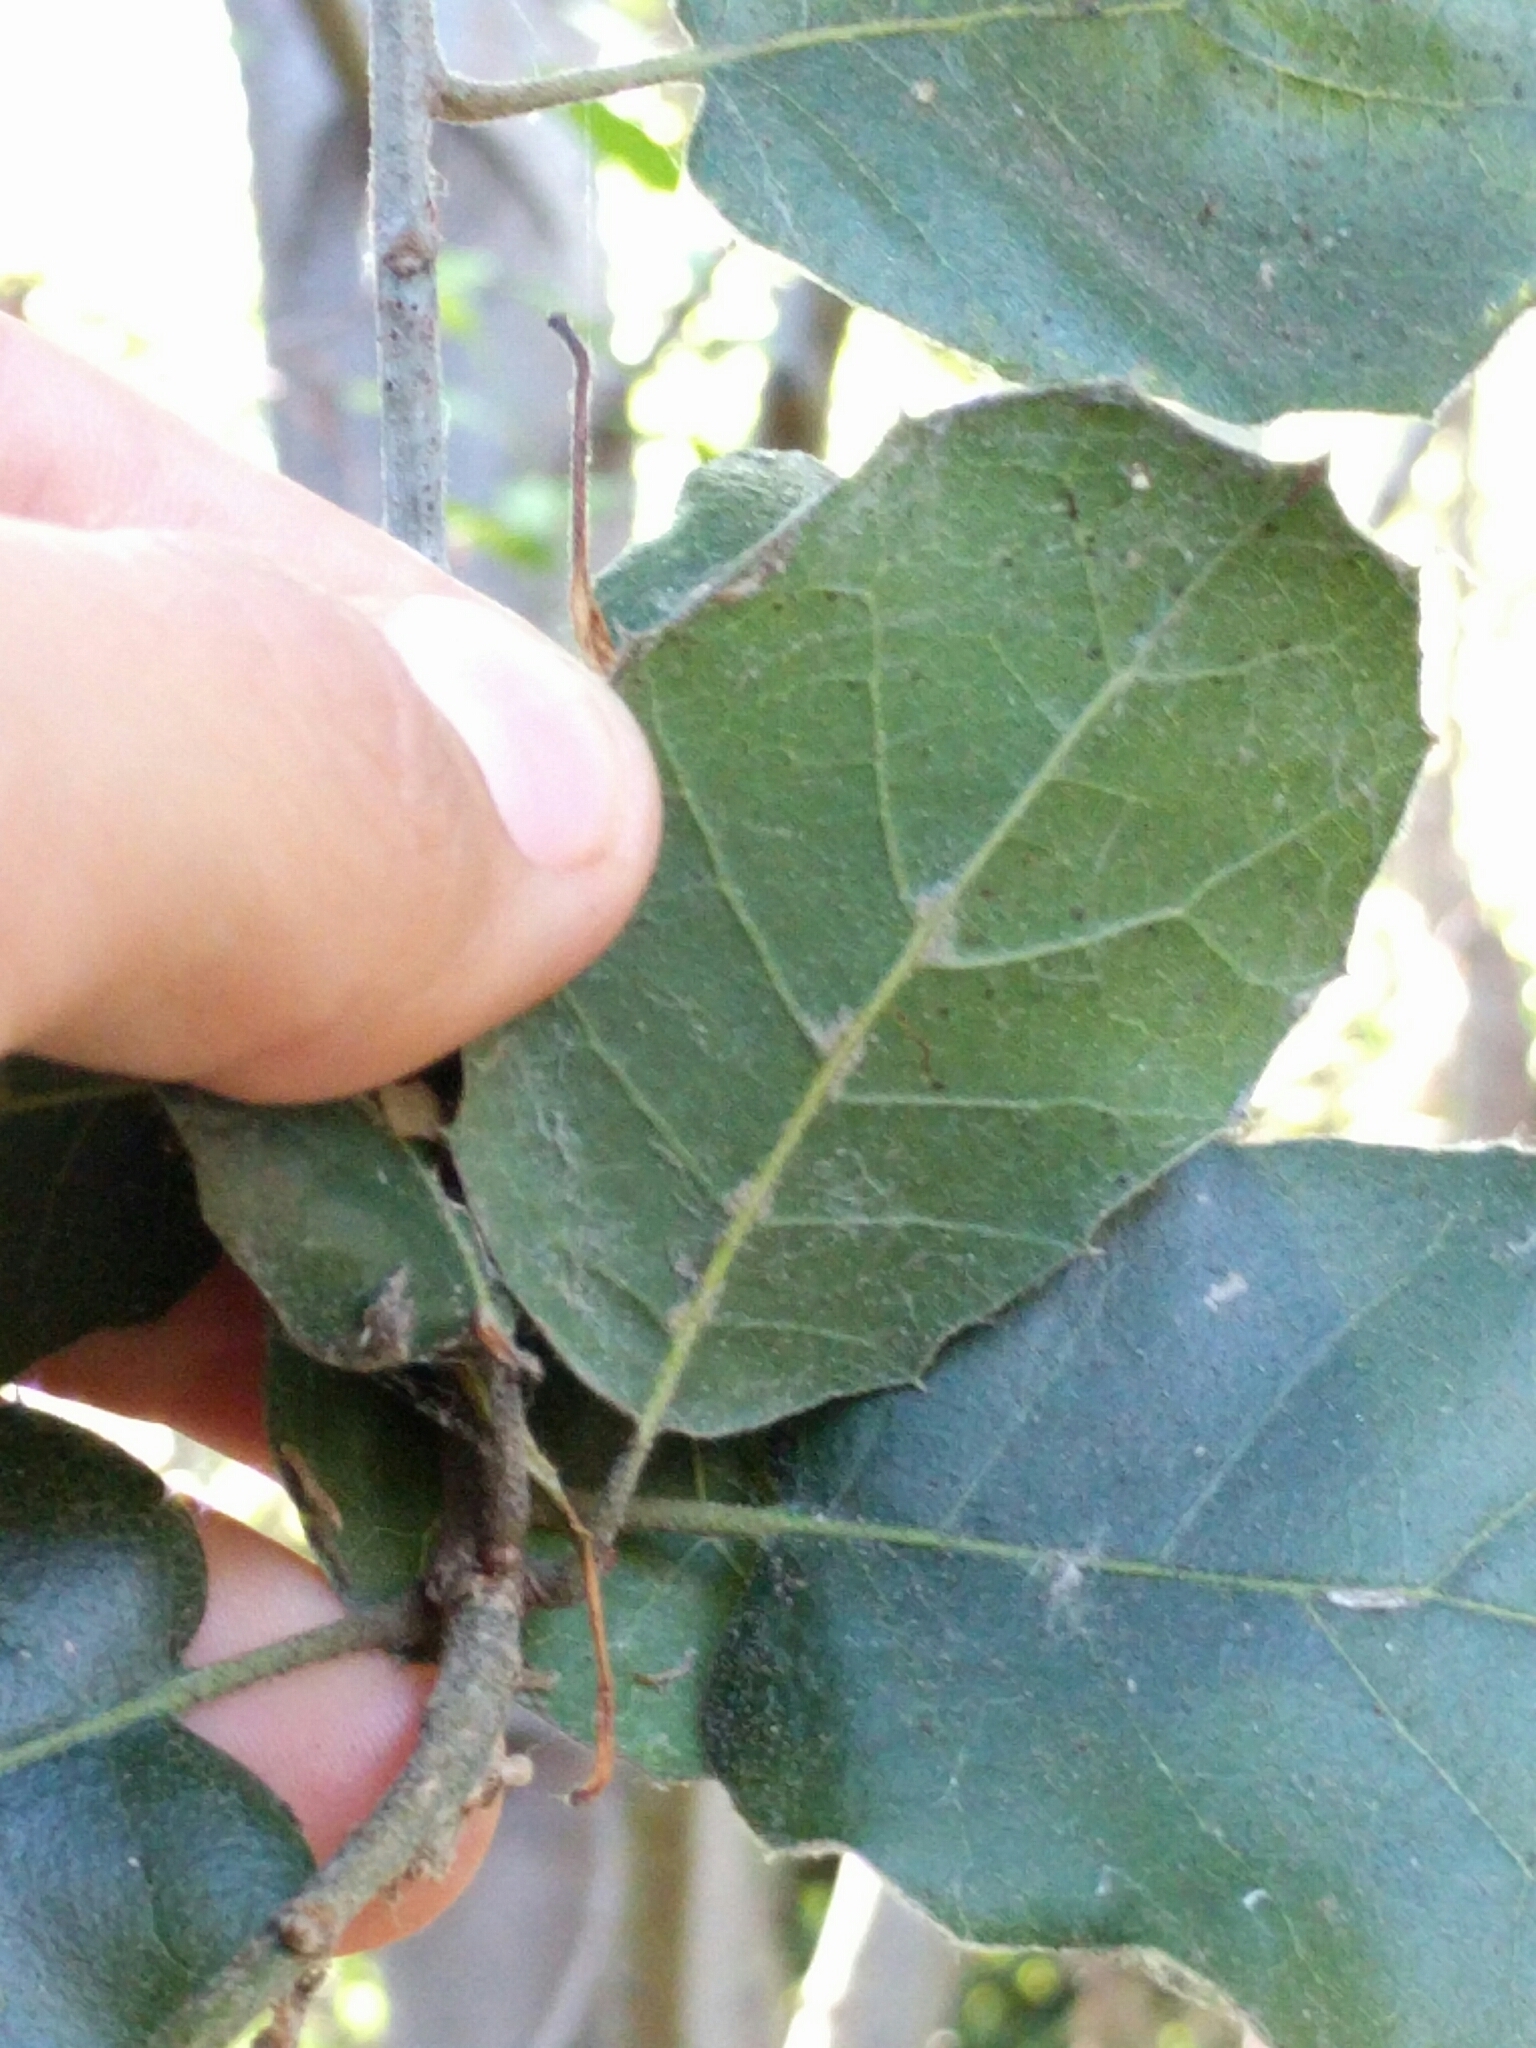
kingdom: Plantae
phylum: Tracheophyta
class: Magnoliopsida
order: Fagales
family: Fagaceae
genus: Quercus
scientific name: Quercus agrifolia
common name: California live oak
